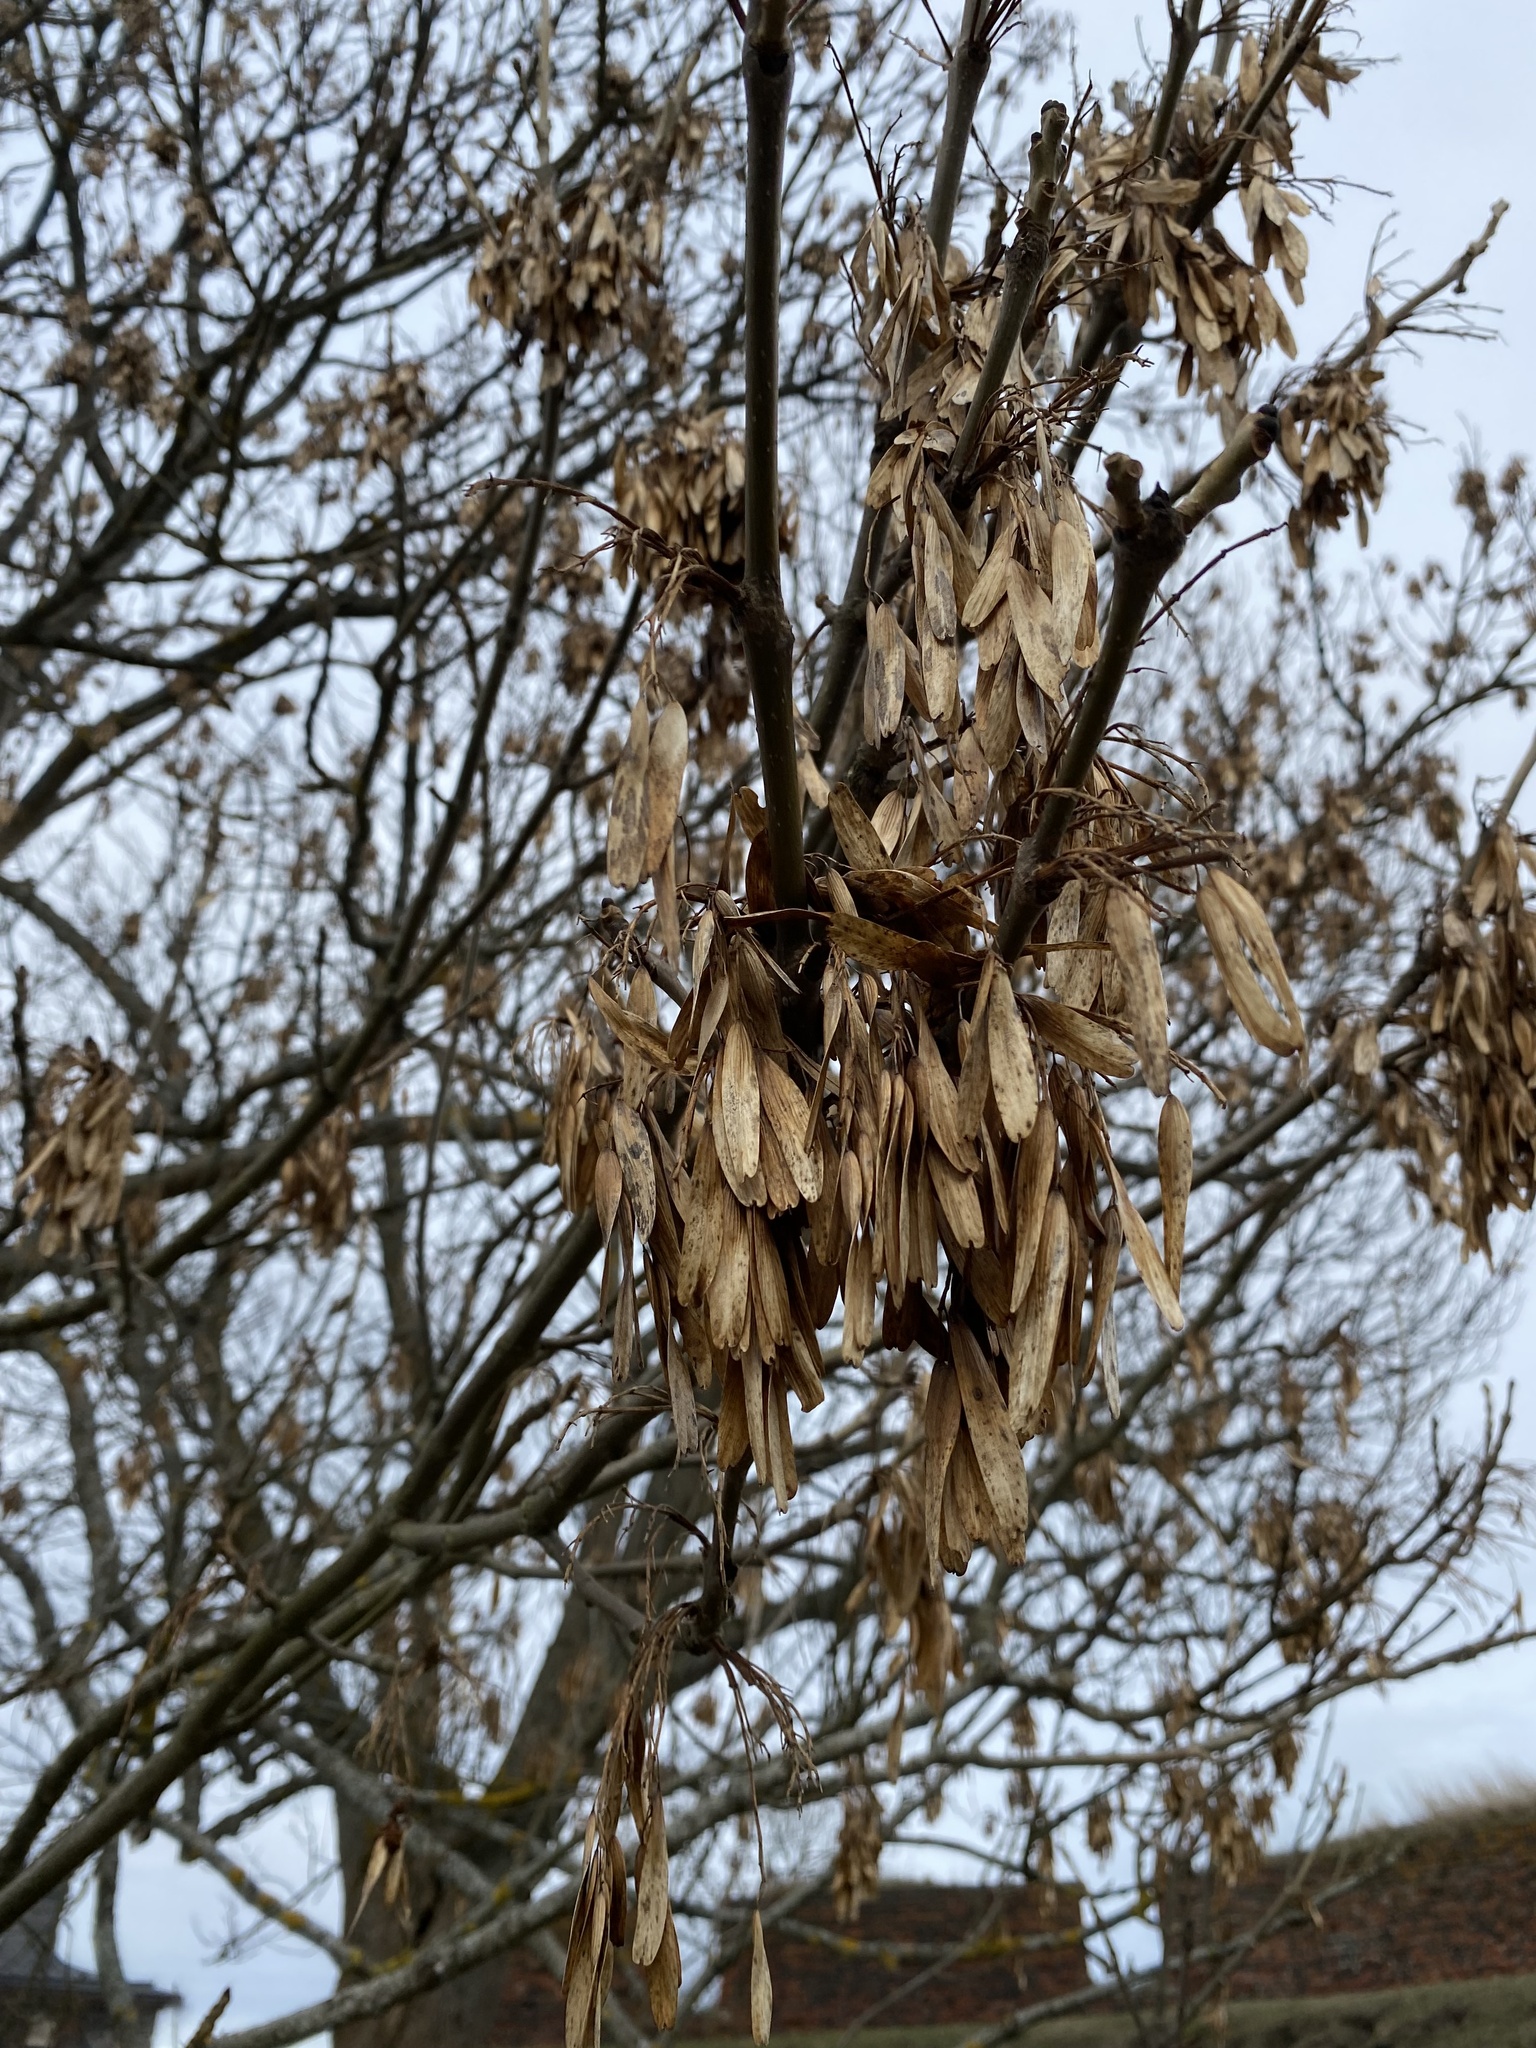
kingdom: Plantae
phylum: Tracheophyta
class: Magnoliopsida
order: Lamiales
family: Oleaceae
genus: Fraxinus
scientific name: Fraxinus excelsior
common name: European ash
